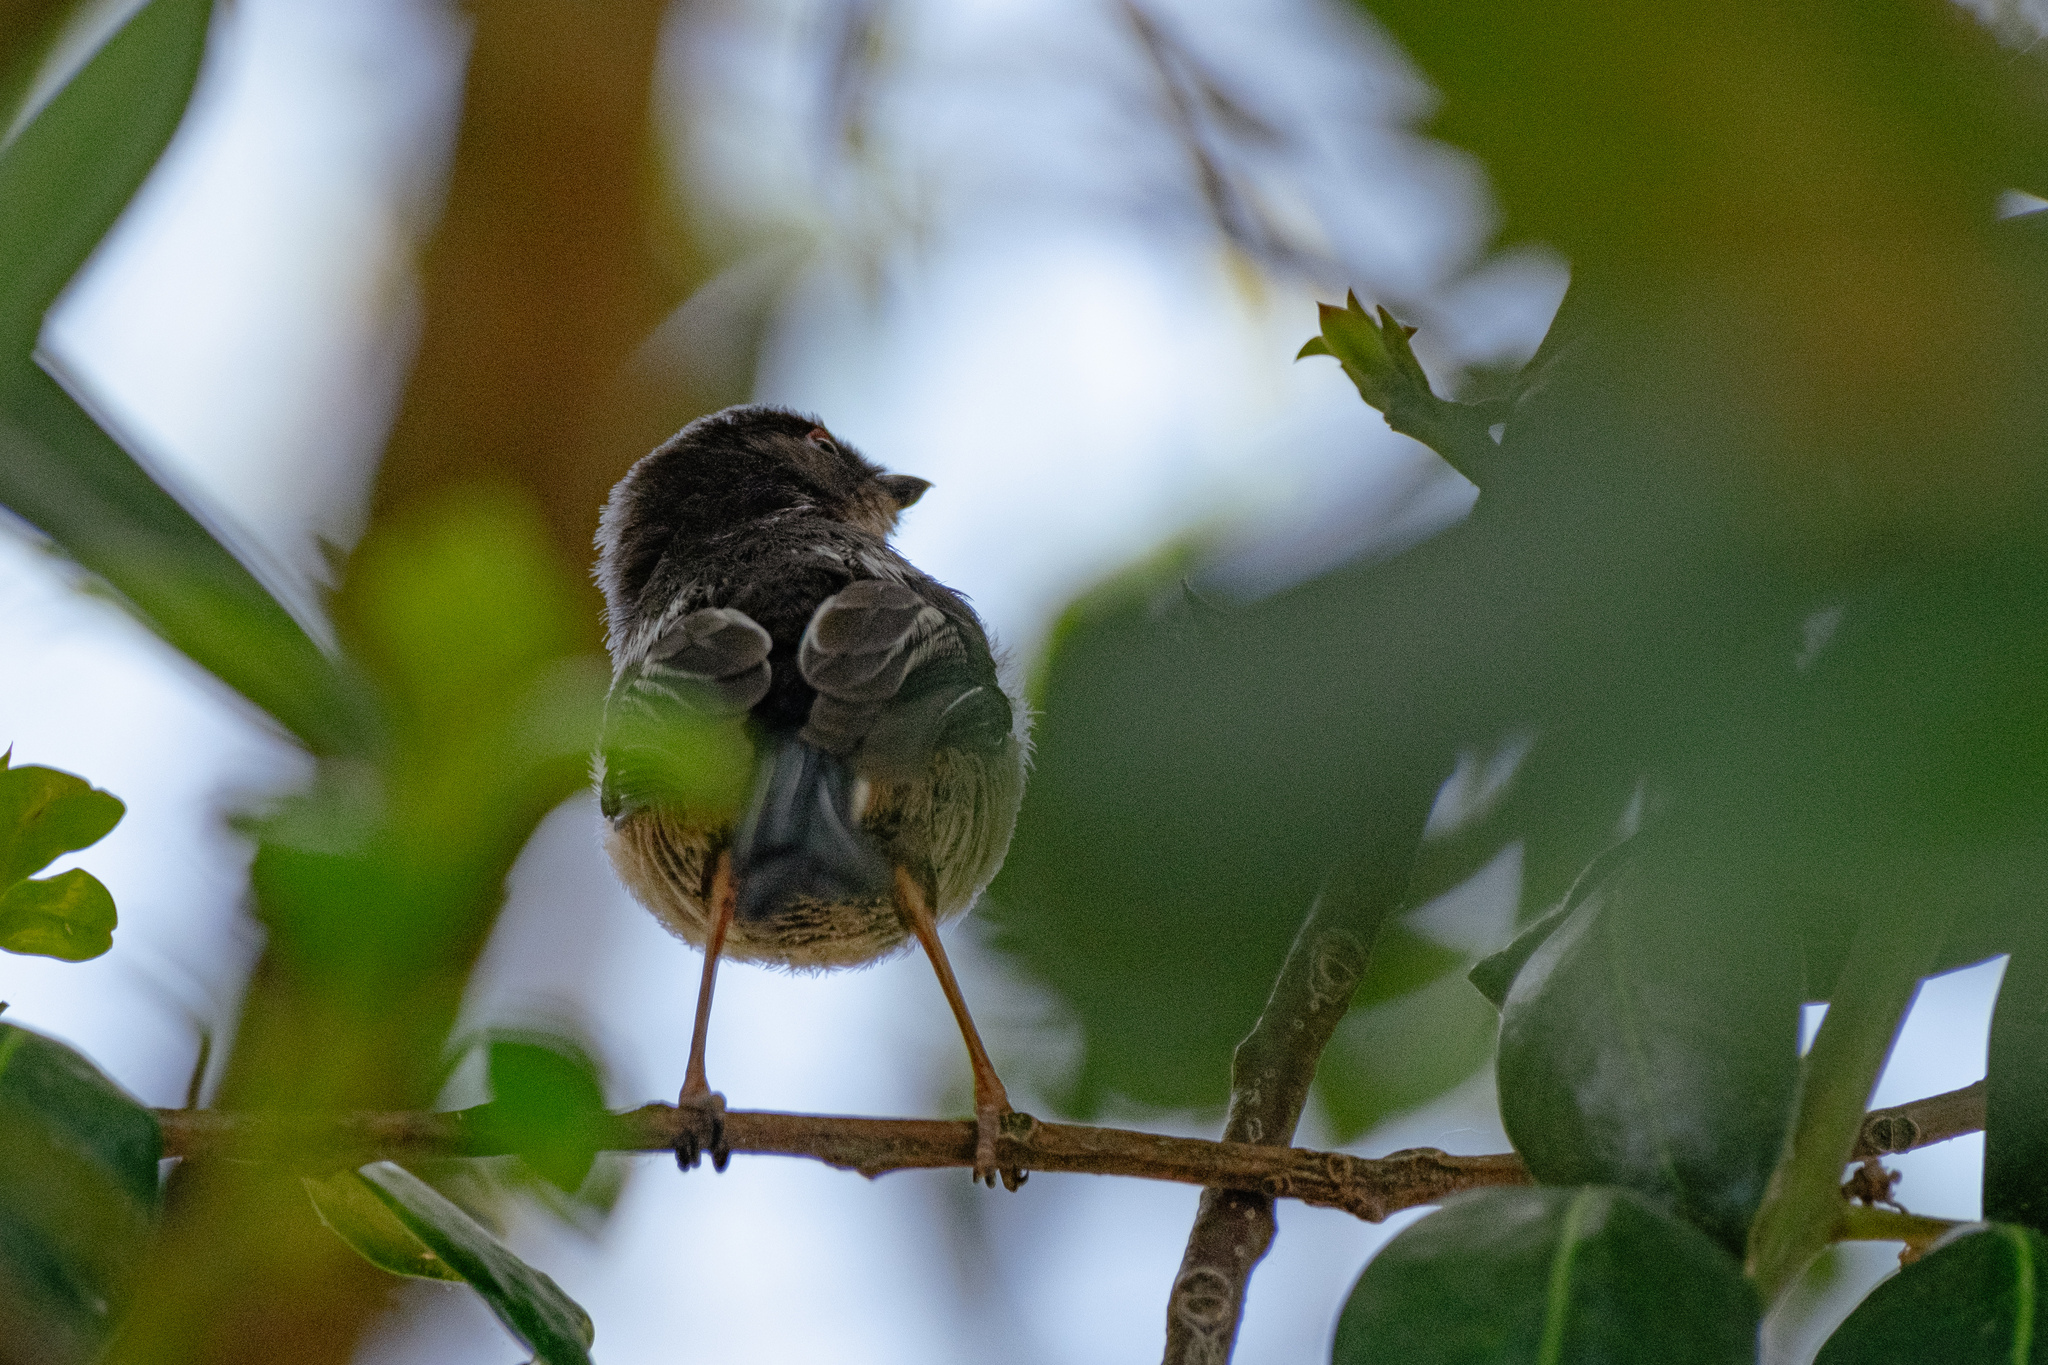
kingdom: Animalia
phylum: Chordata
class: Aves
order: Passeriformes
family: Aegithalidae
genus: Aegithalos
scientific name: Aegithalos caudatus
